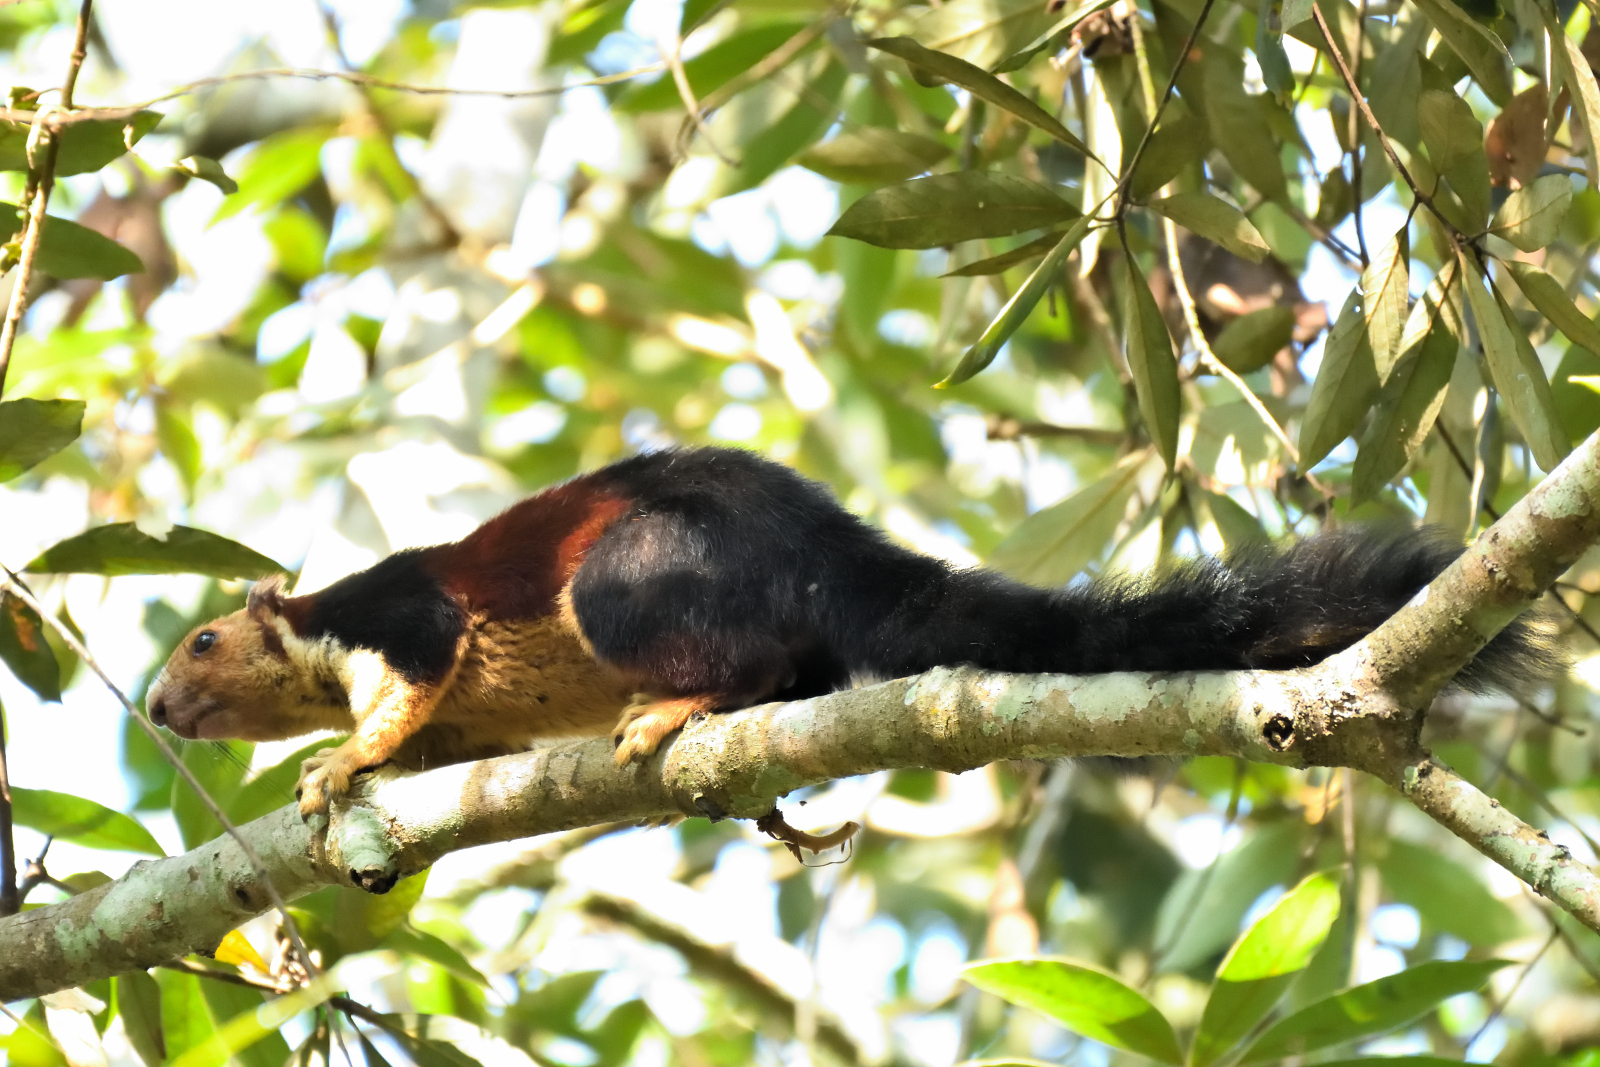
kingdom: Animalia
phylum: Chordata
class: Mammalia
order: Rodentia
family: Sciuridae
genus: Ratufa
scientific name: Ratufa indica
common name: Indian giant squirrel
